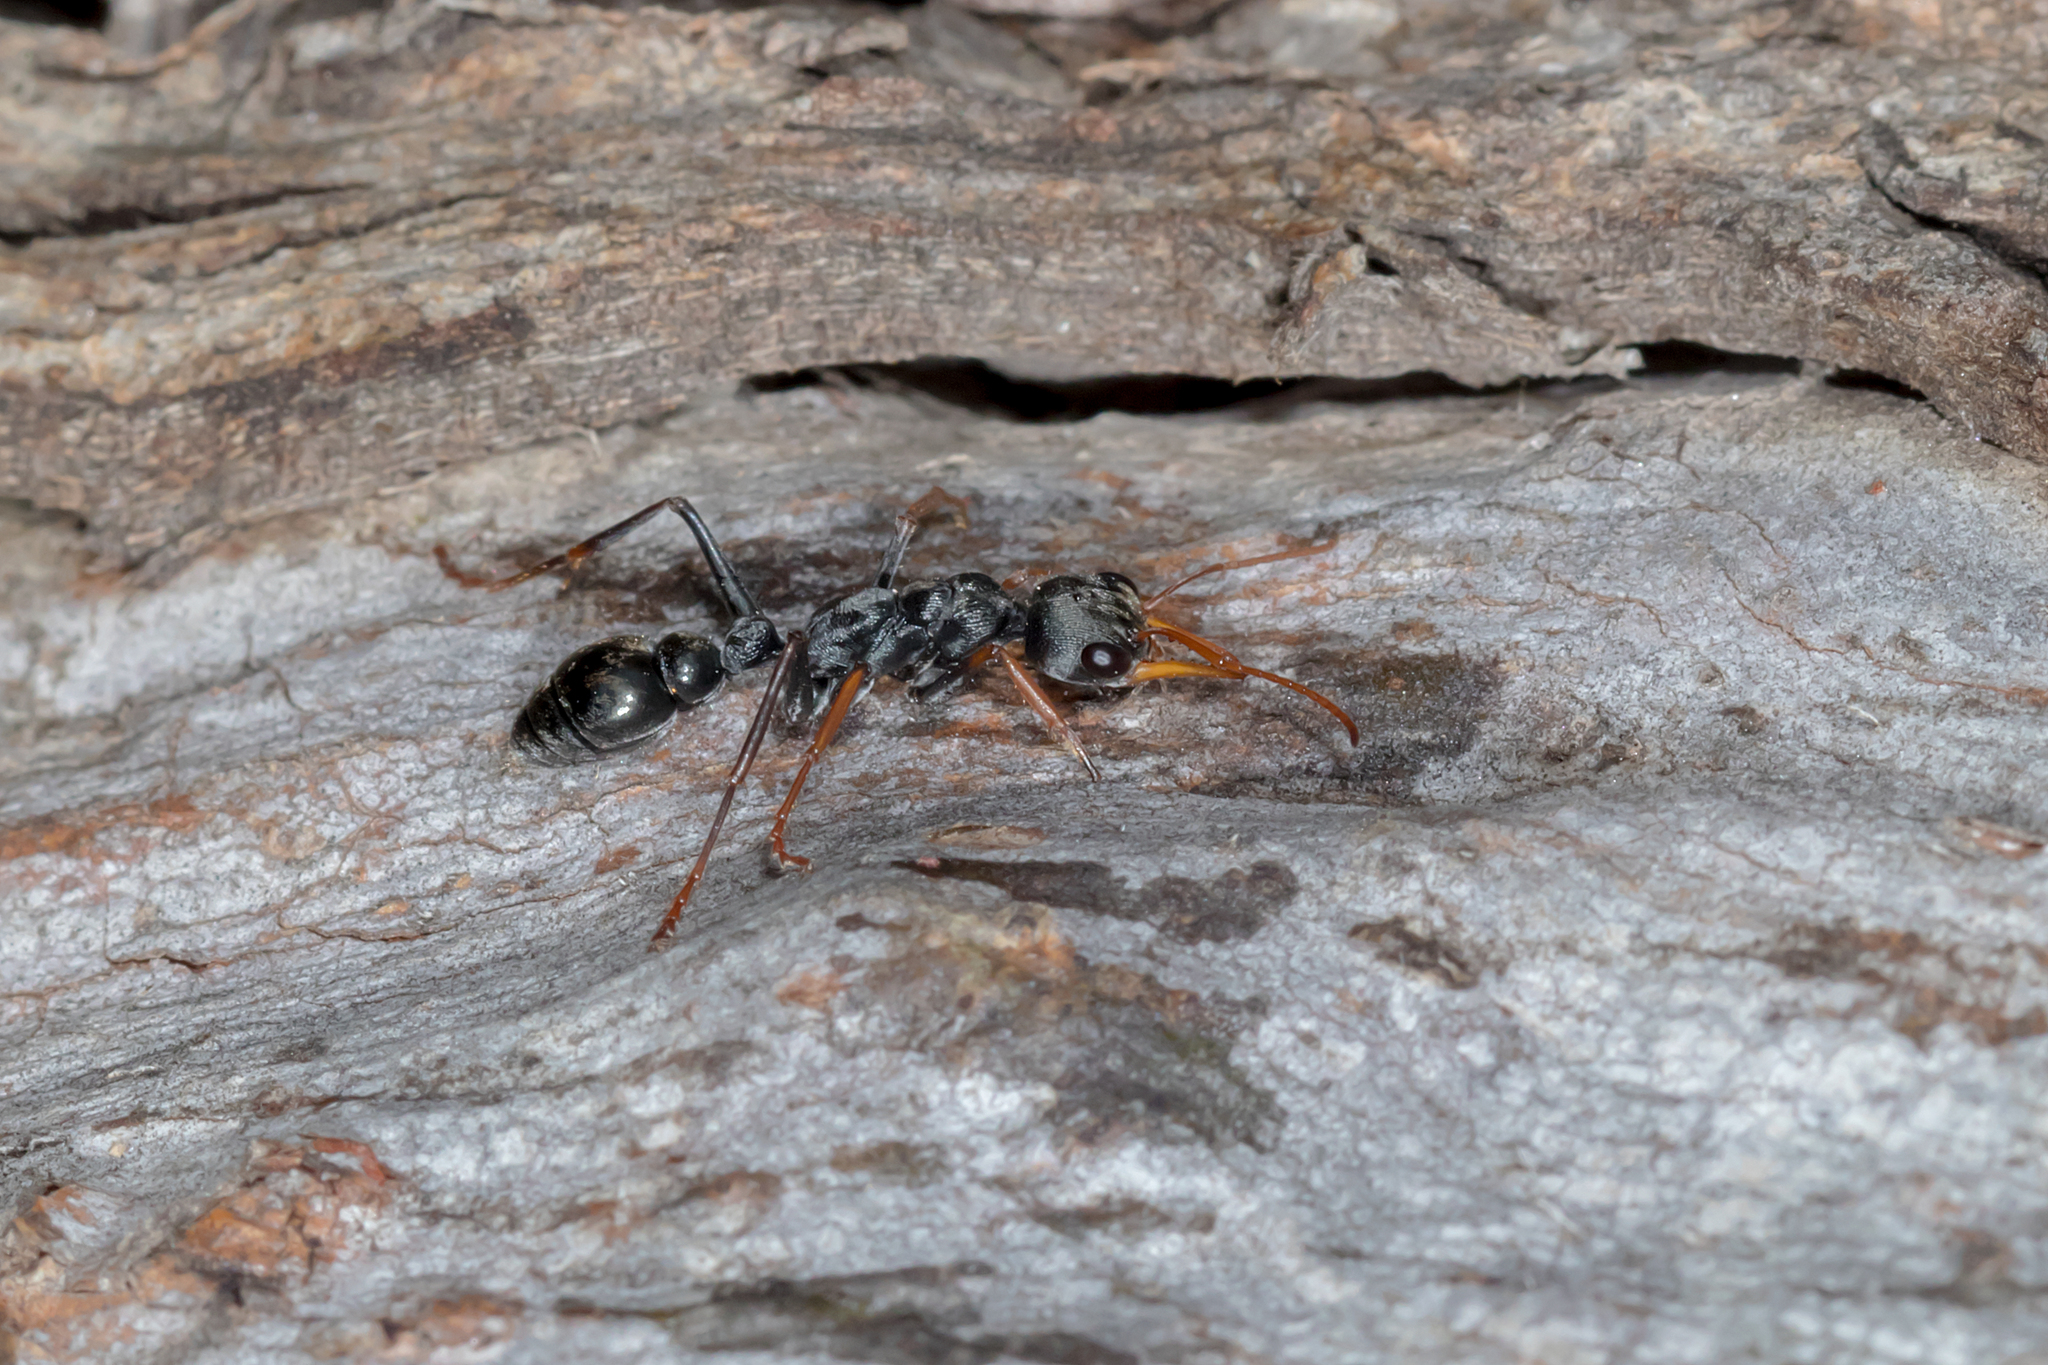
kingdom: Animalia
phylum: Arthropoda
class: Insecta
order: Hymenoptera
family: Formicidae
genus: Myrmecia
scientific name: Myrmecia pilosula
